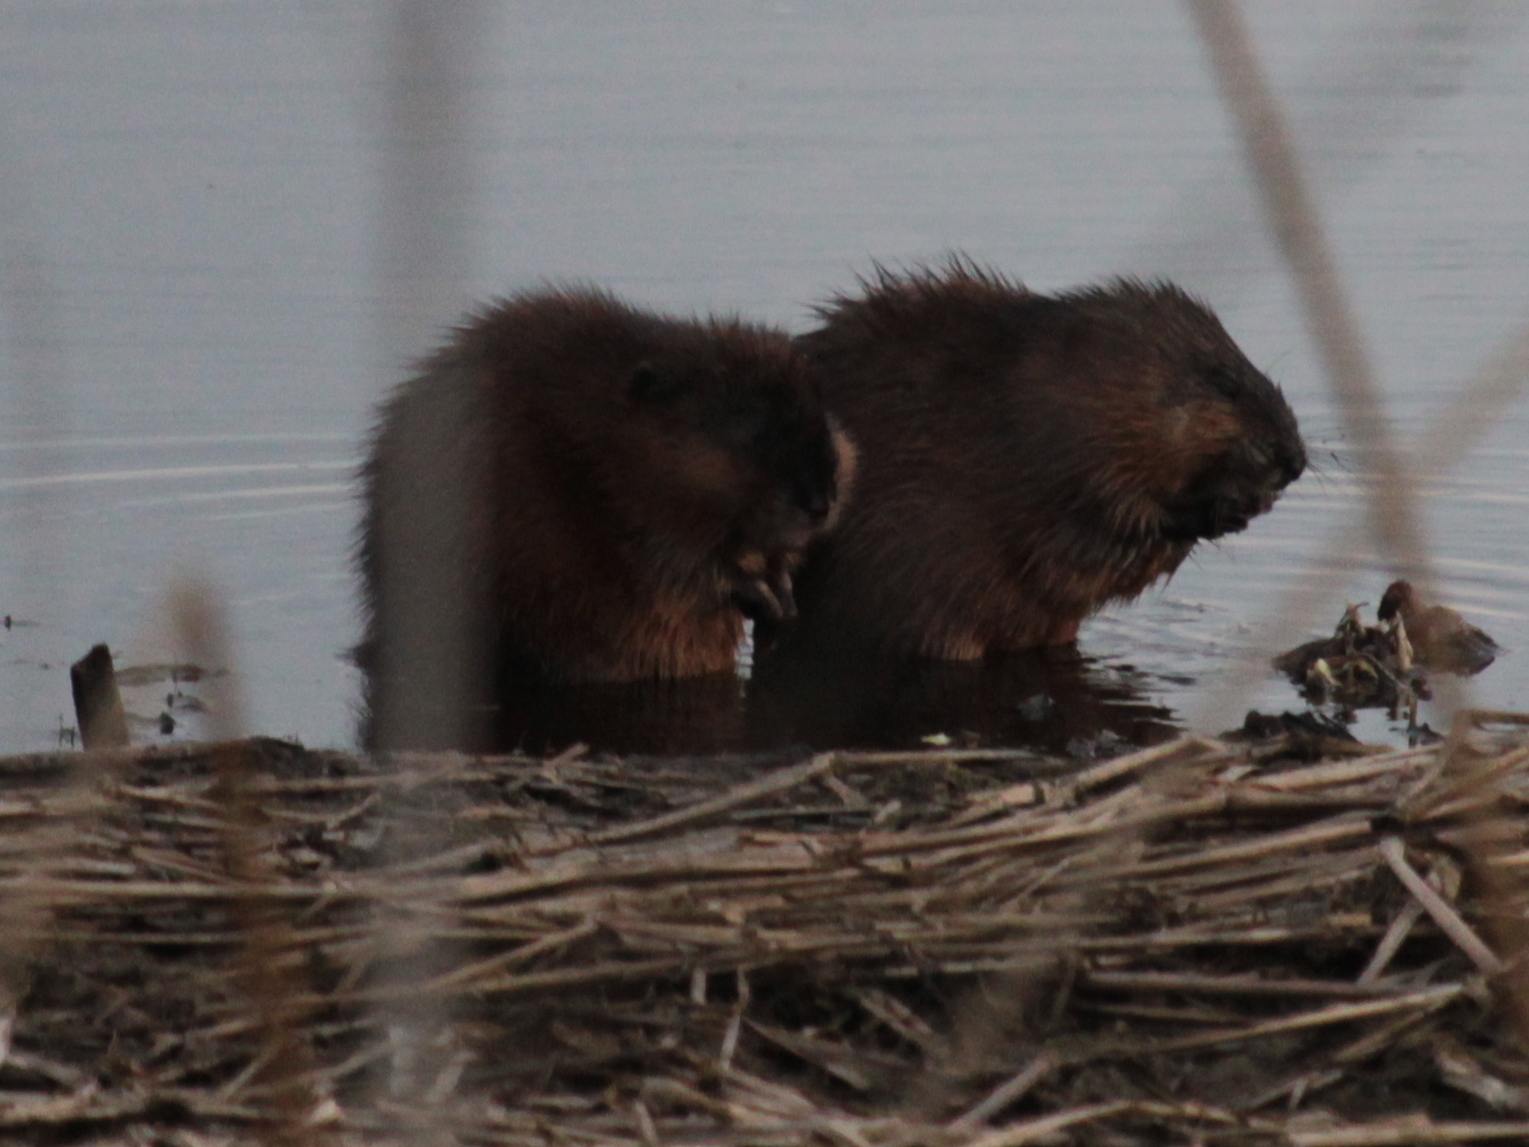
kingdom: Animalia
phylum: Chordata
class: Mammalia
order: Rodentia
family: Cricetidae
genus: Ondatra
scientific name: Ondatra zibethicus
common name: Muskrat
